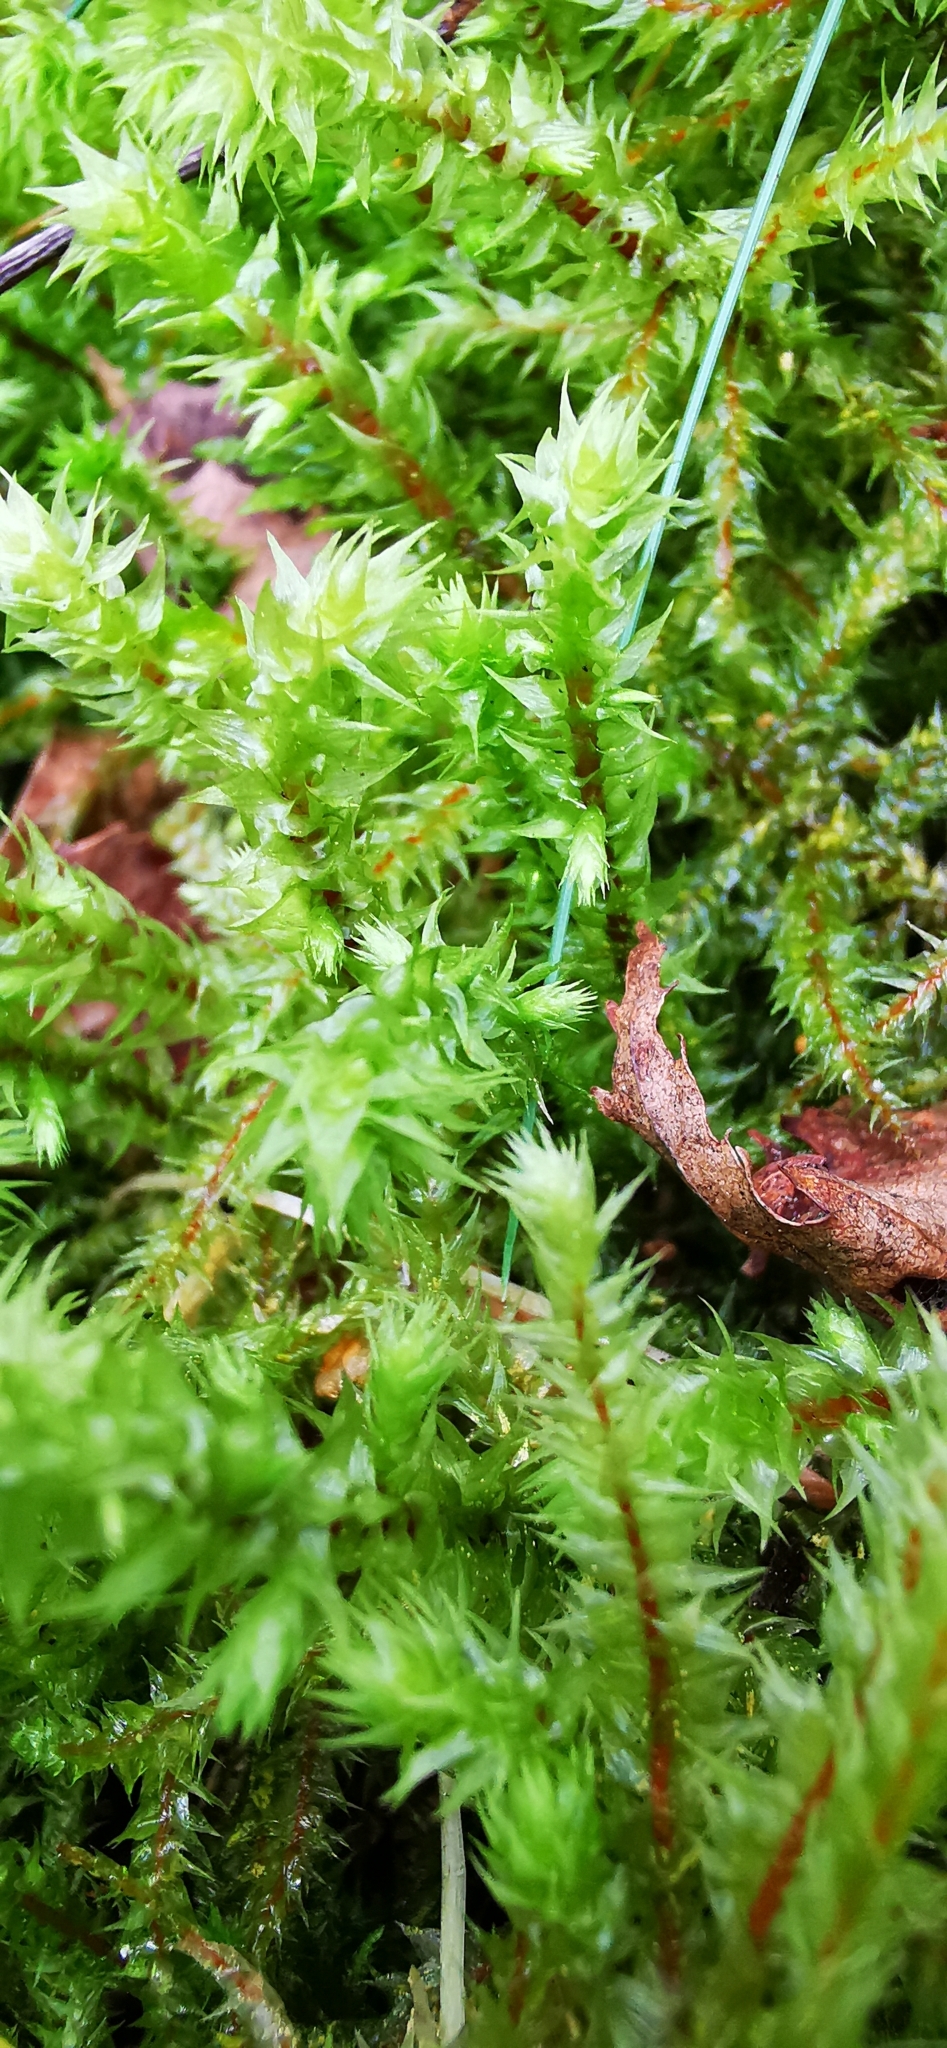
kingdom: Plantae
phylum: Bryophyta
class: Bryopsida
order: Hypnales
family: Hylocomiaceae
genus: Hylocomiadelphus
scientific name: Hylocomiadelphus triquetrus
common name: Rough goose neck moss
